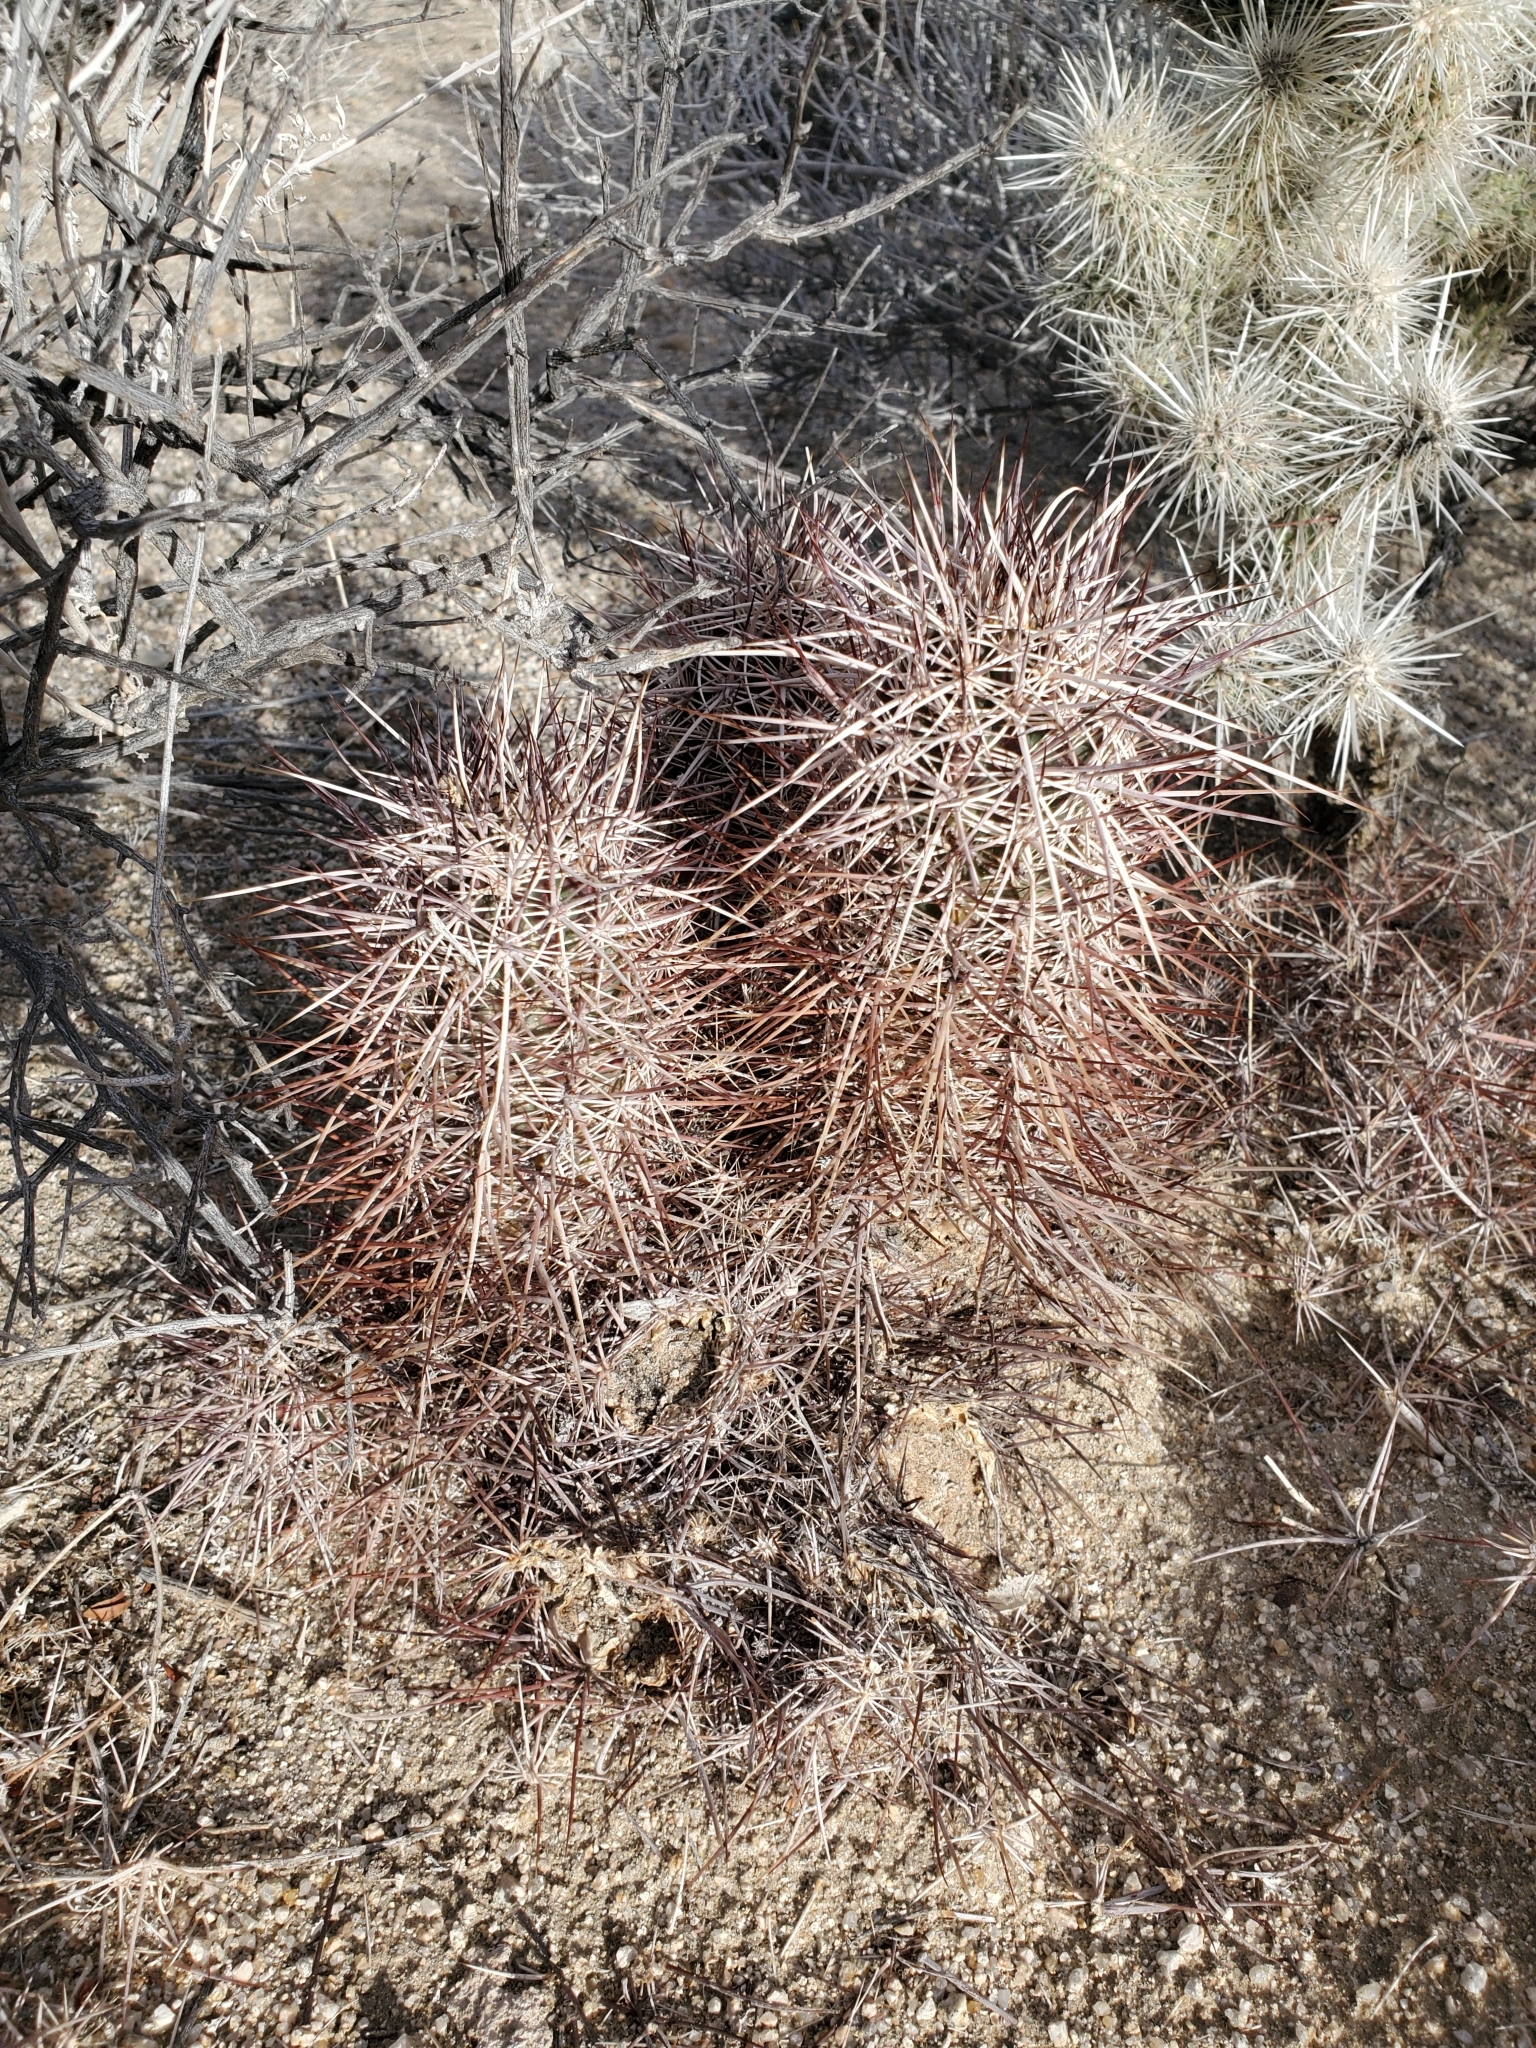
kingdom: Plantae
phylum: Tracheophyta
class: Magnoliopsida
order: Caryophyllales
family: Cactaceae
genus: Echinocereus
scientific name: Echinocereus engelmannii
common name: Engelmann's hedgehog cactus
